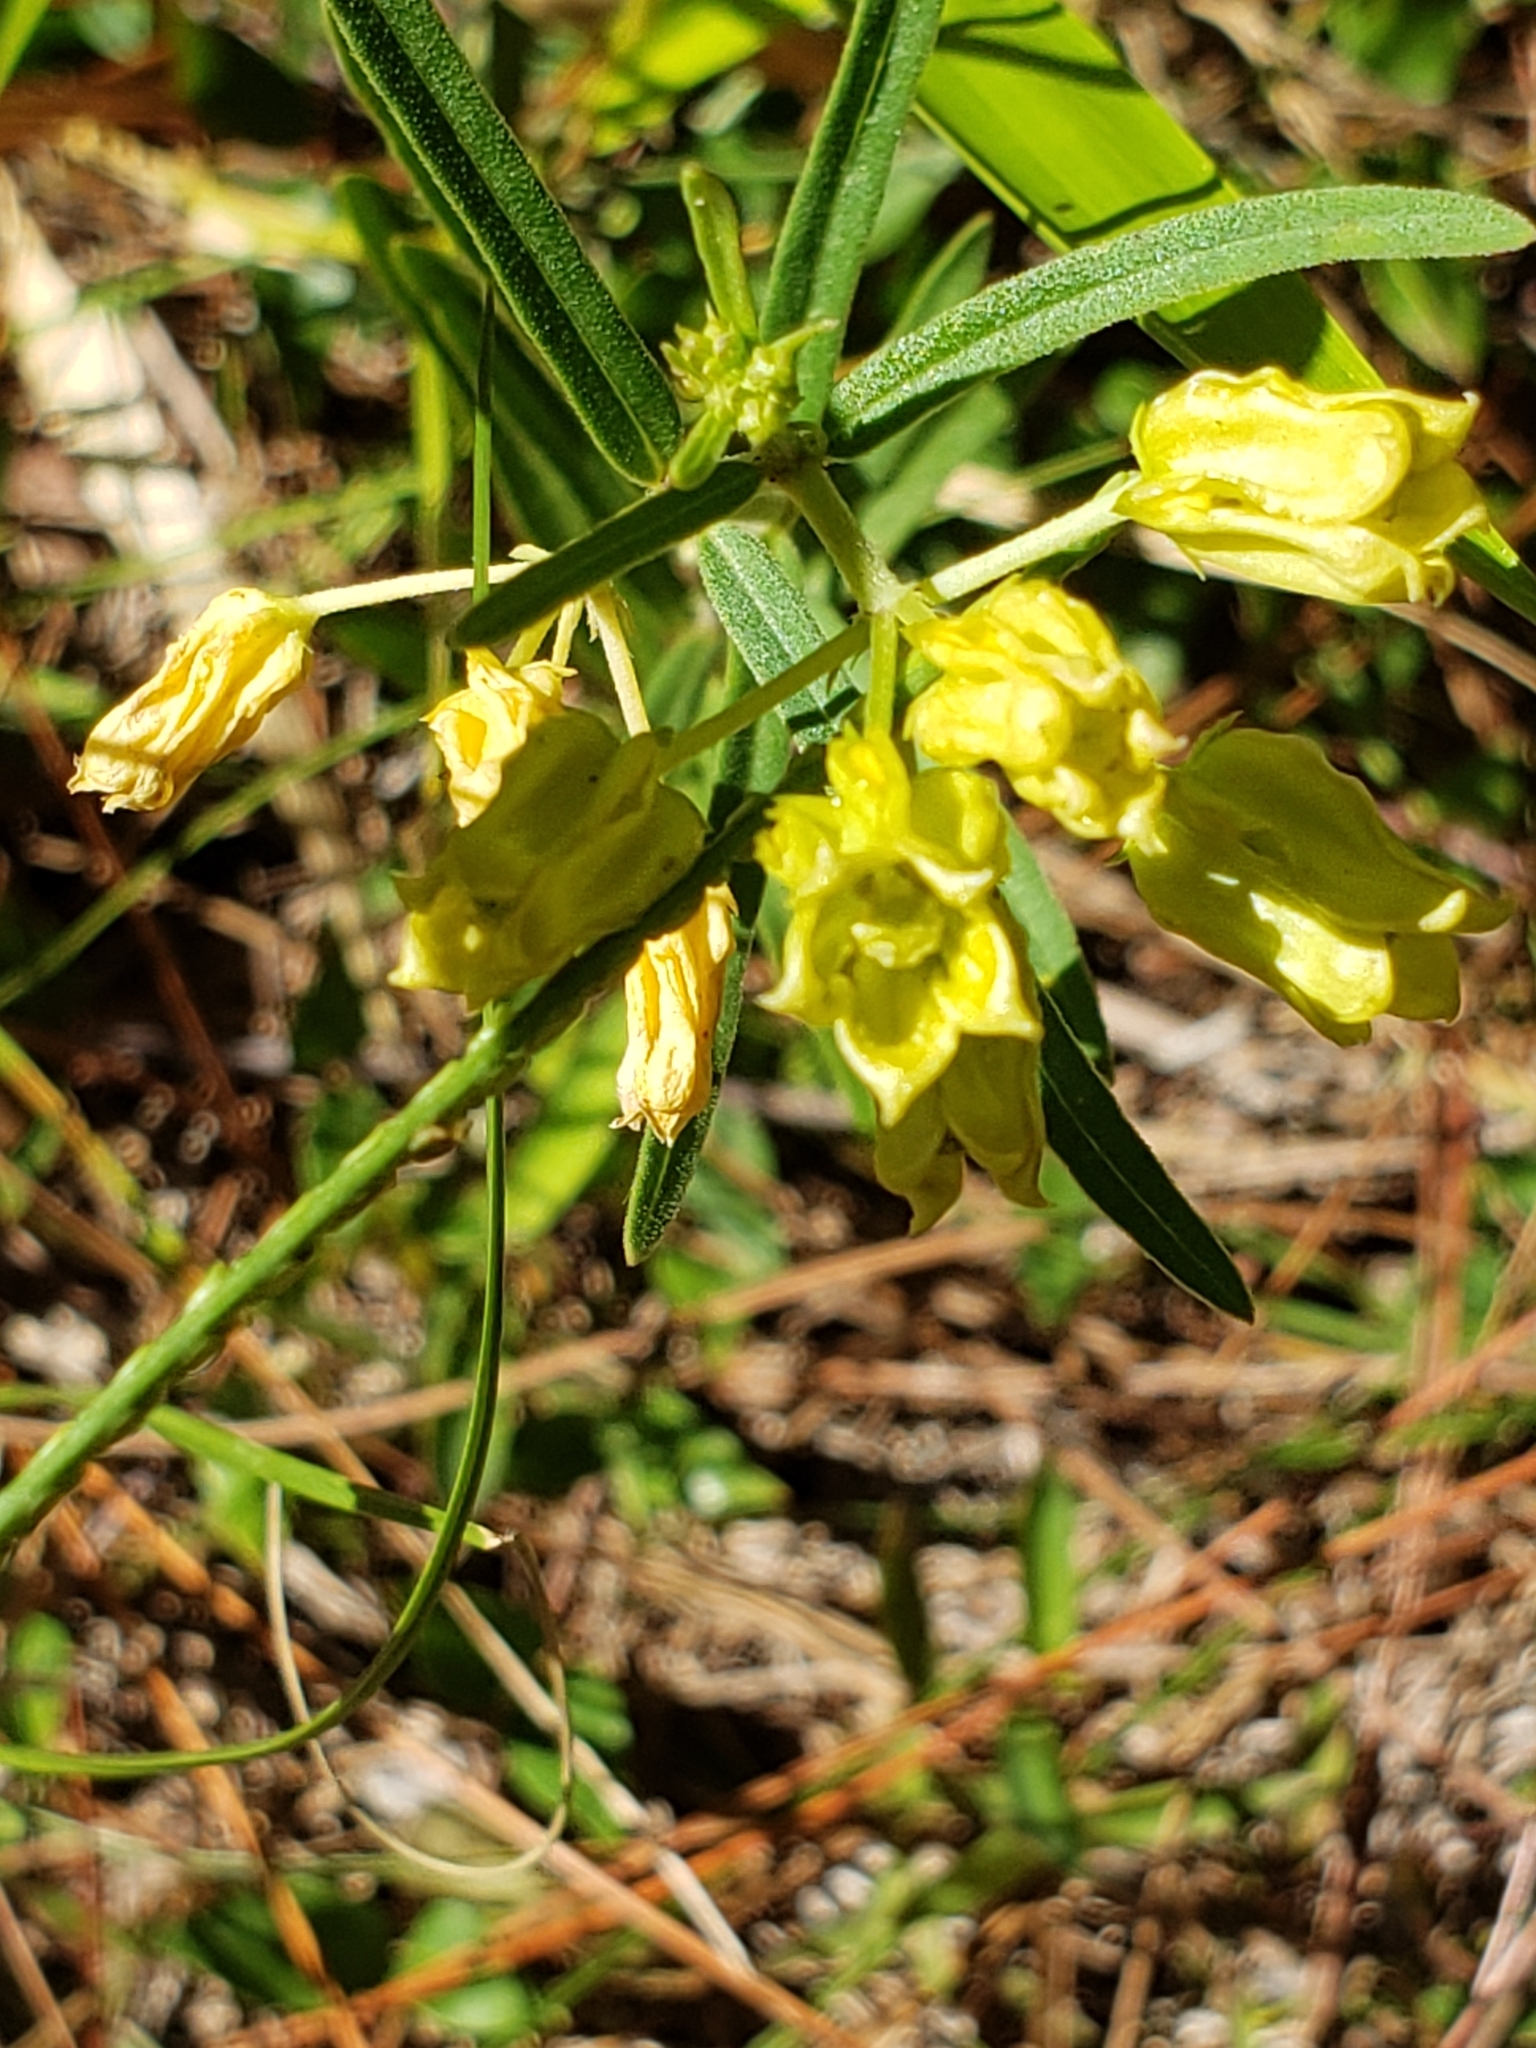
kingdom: Plantae
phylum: Tracheophyta
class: Magnoliopsida
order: Gentianales
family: Apocynaceae
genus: Asclepias
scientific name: Asclepias pedicellata
